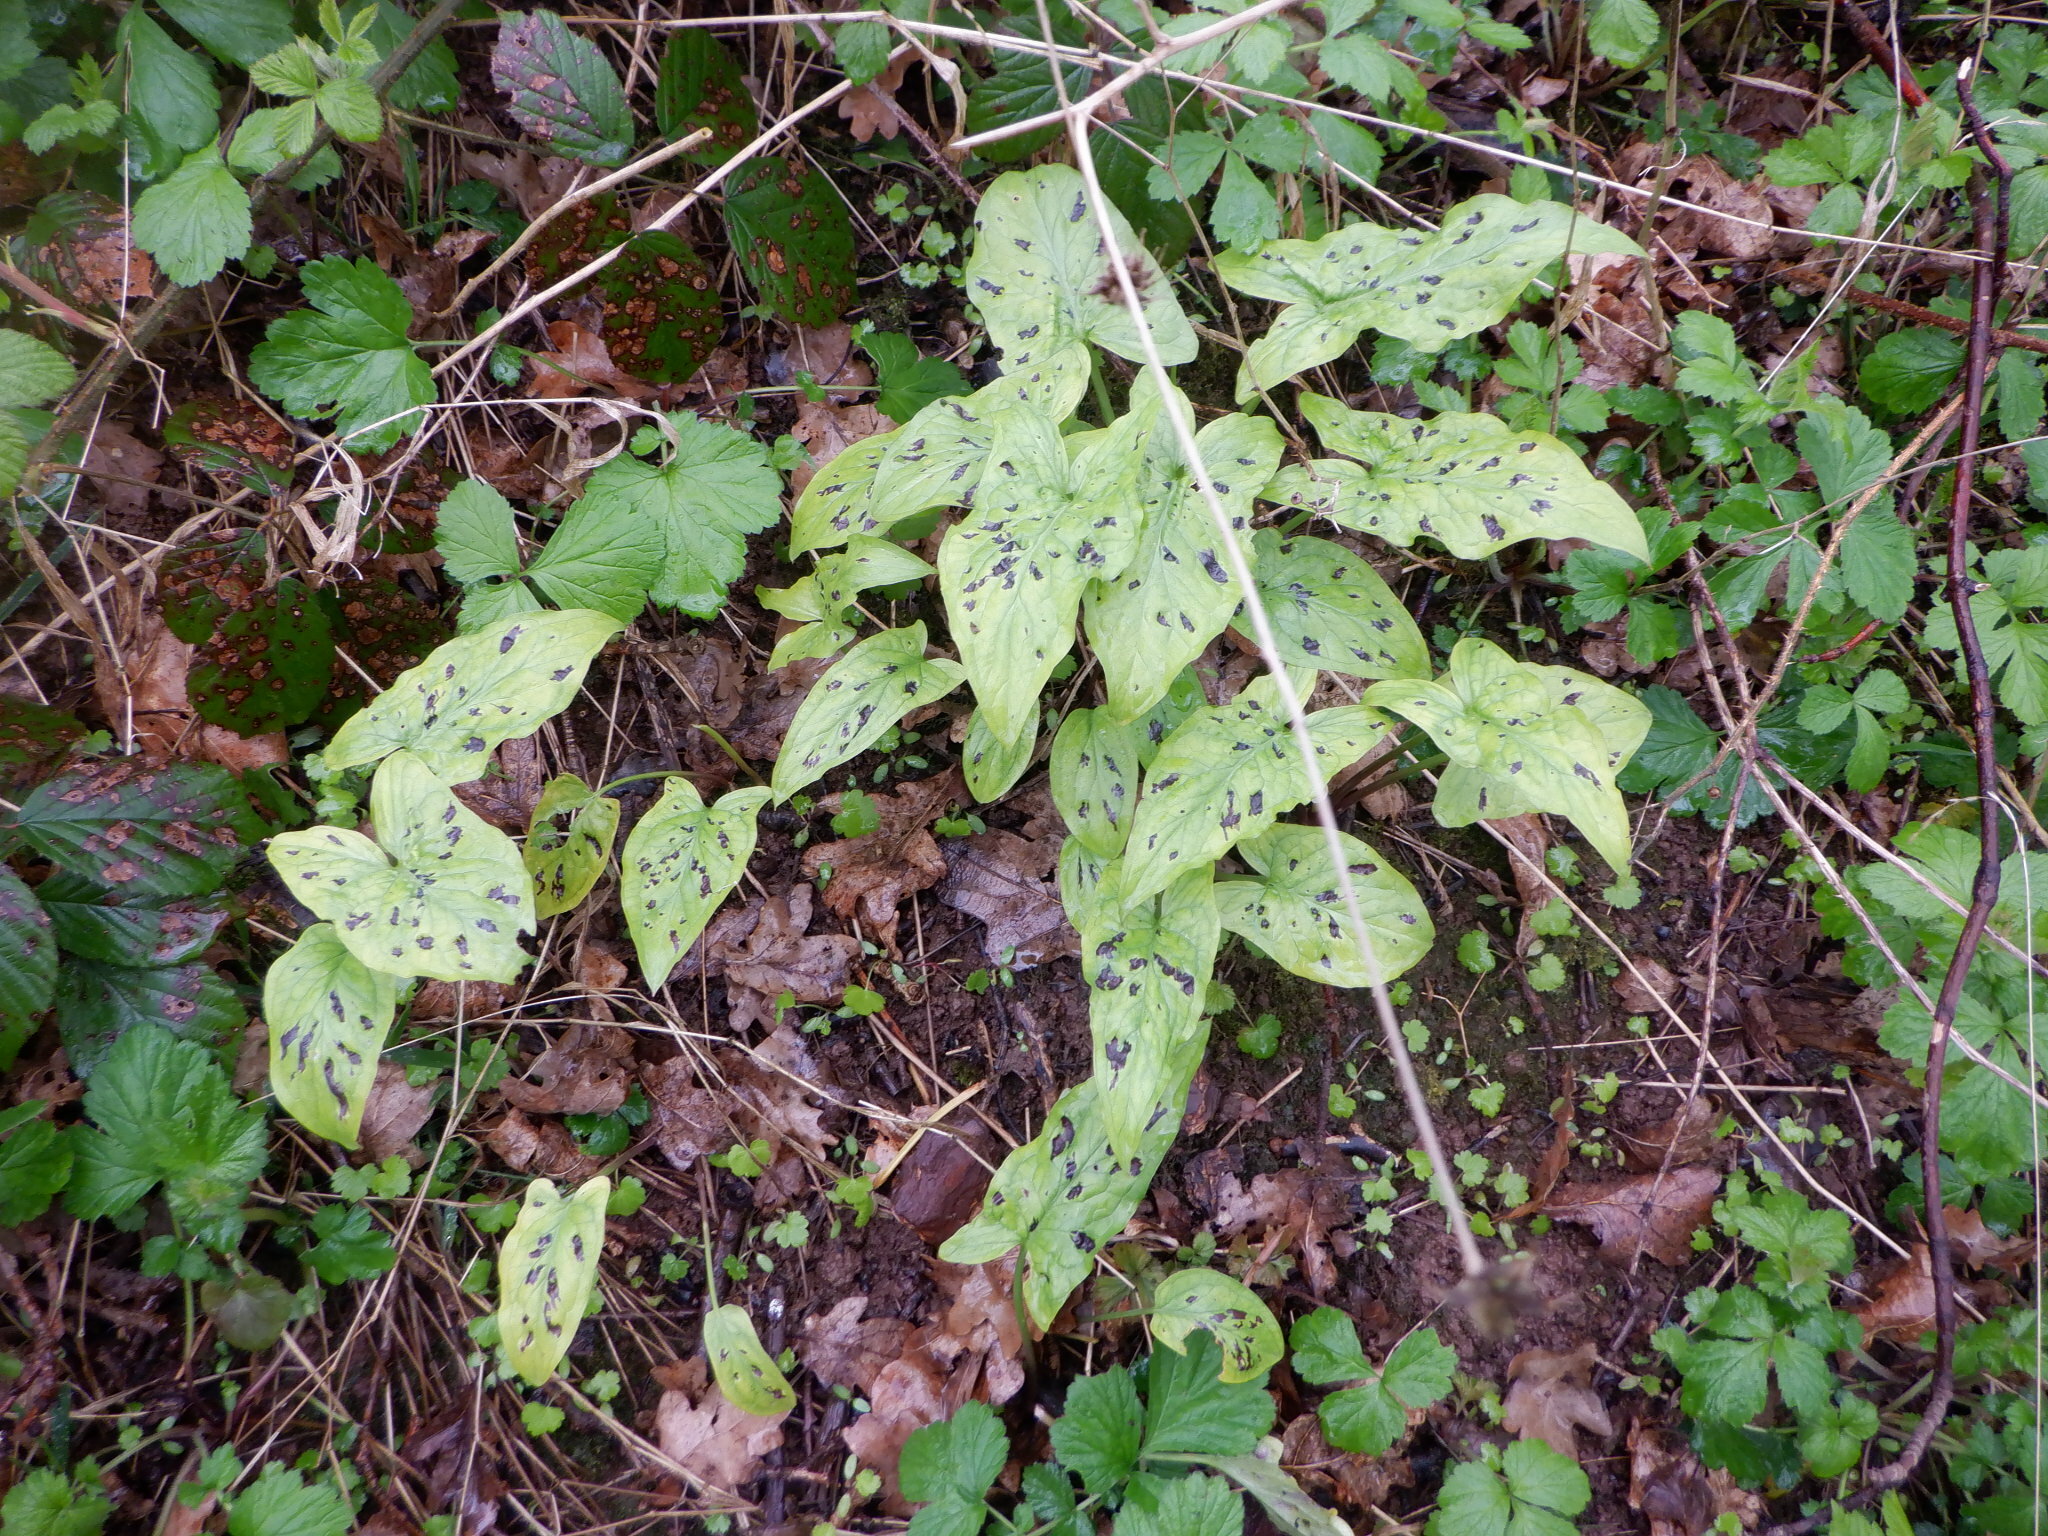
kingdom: Plantae
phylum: Tracheophyta
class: Liliopsida
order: Alismatales
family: Araceae
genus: Arum
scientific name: Arum maculatum
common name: Lords-and-ladies
